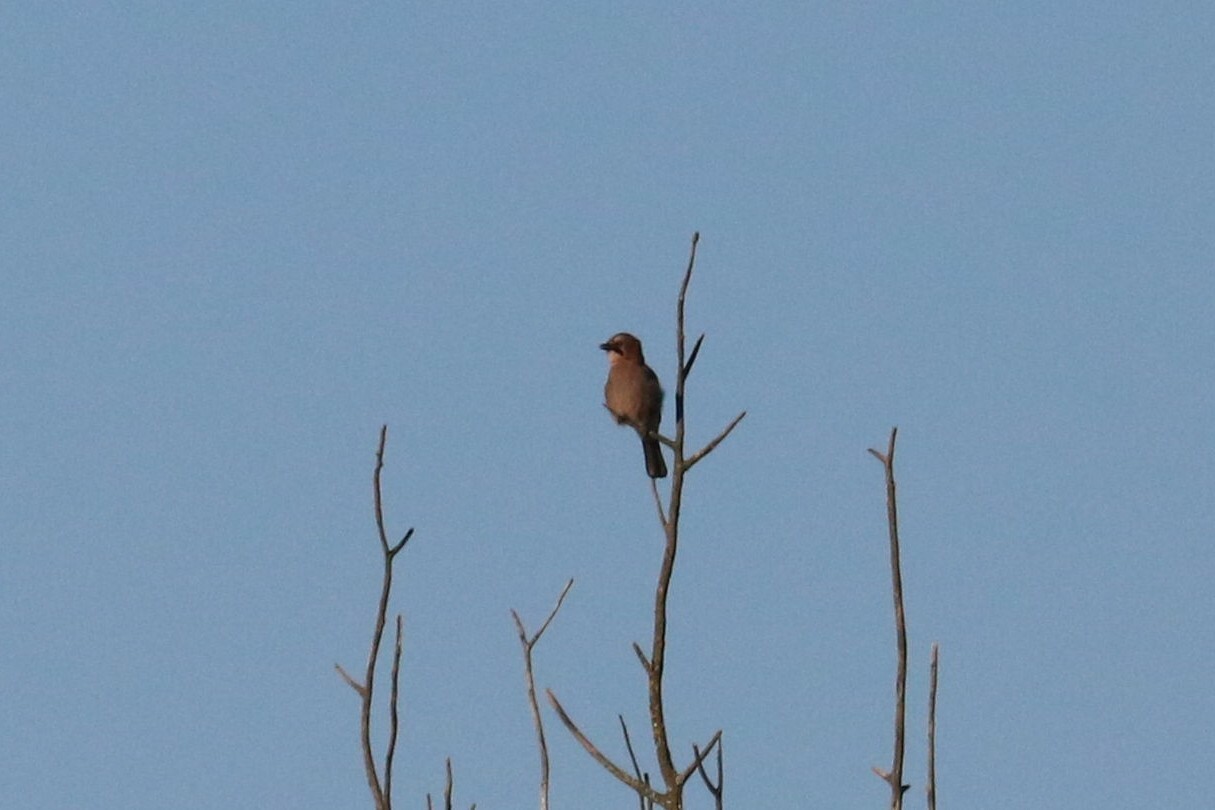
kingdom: Animalia
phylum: Chordata
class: Aves
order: Passeriformes
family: Corvidae
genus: Garrulus
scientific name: Garrulus glandarius
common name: Eurasian jay
